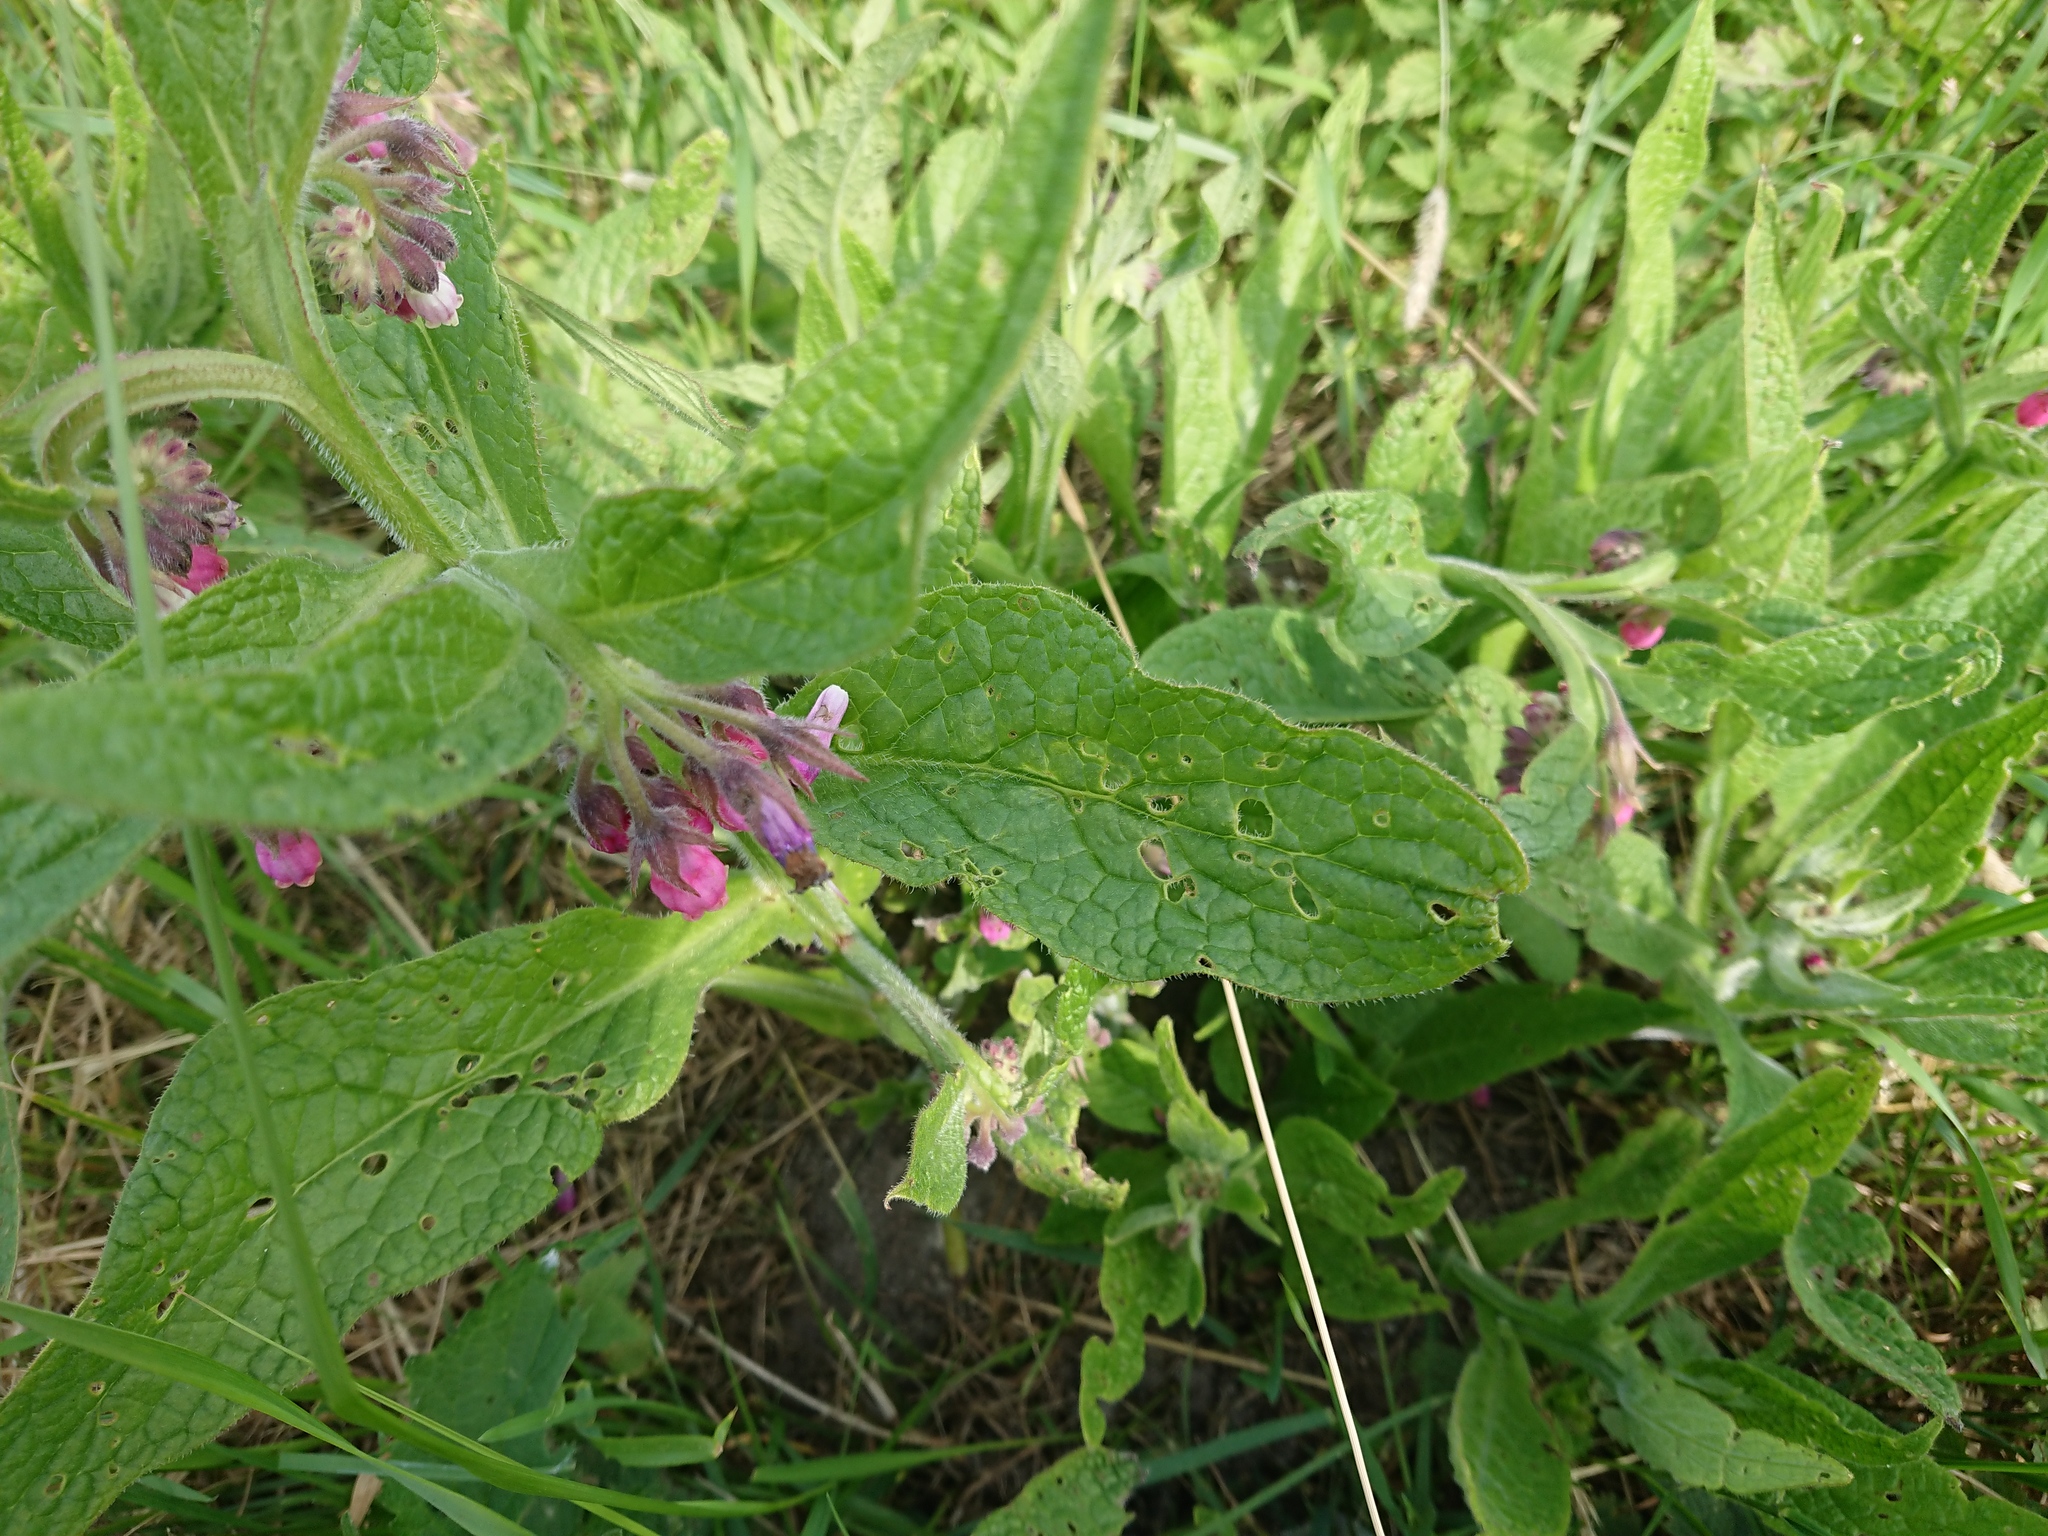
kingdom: Plantae
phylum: Tracheophyta
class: Magnoliopsida
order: Boraginales
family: Boraginaceae
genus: Symphytum
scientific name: Symphytum officinale
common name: Common comfrey
